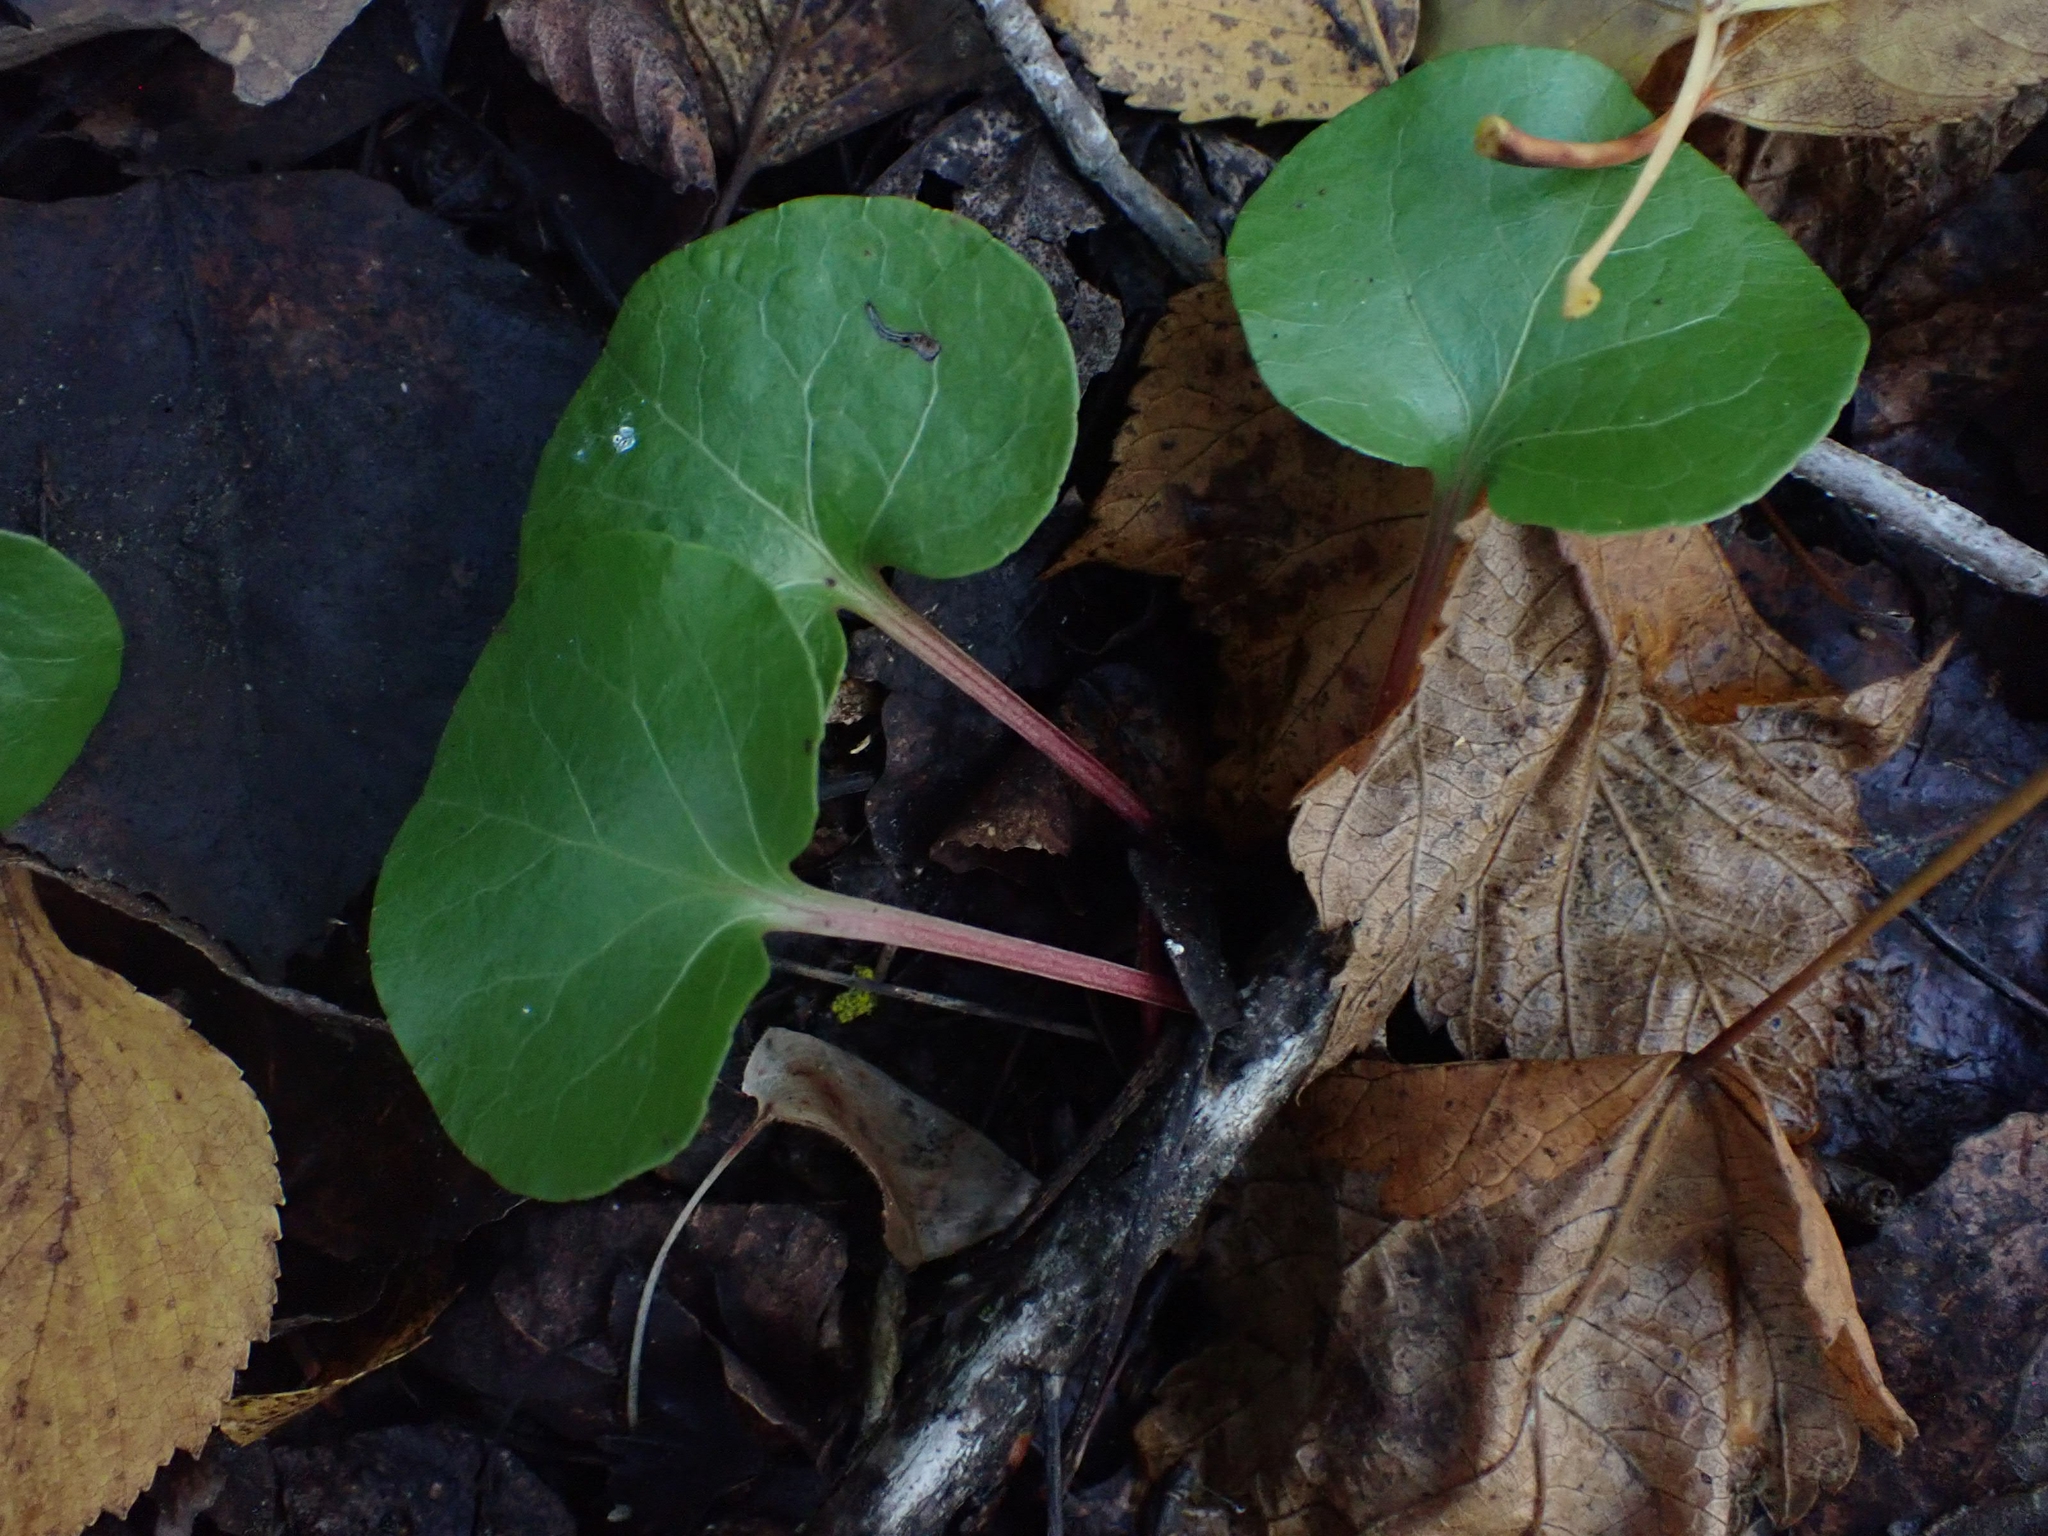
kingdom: Plantae
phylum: Tracheophyta
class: Magnoliopsida
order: Ericales
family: Ericaceae
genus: Pyrola
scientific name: Pyrola asarifolia
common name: Bog wintergreen
